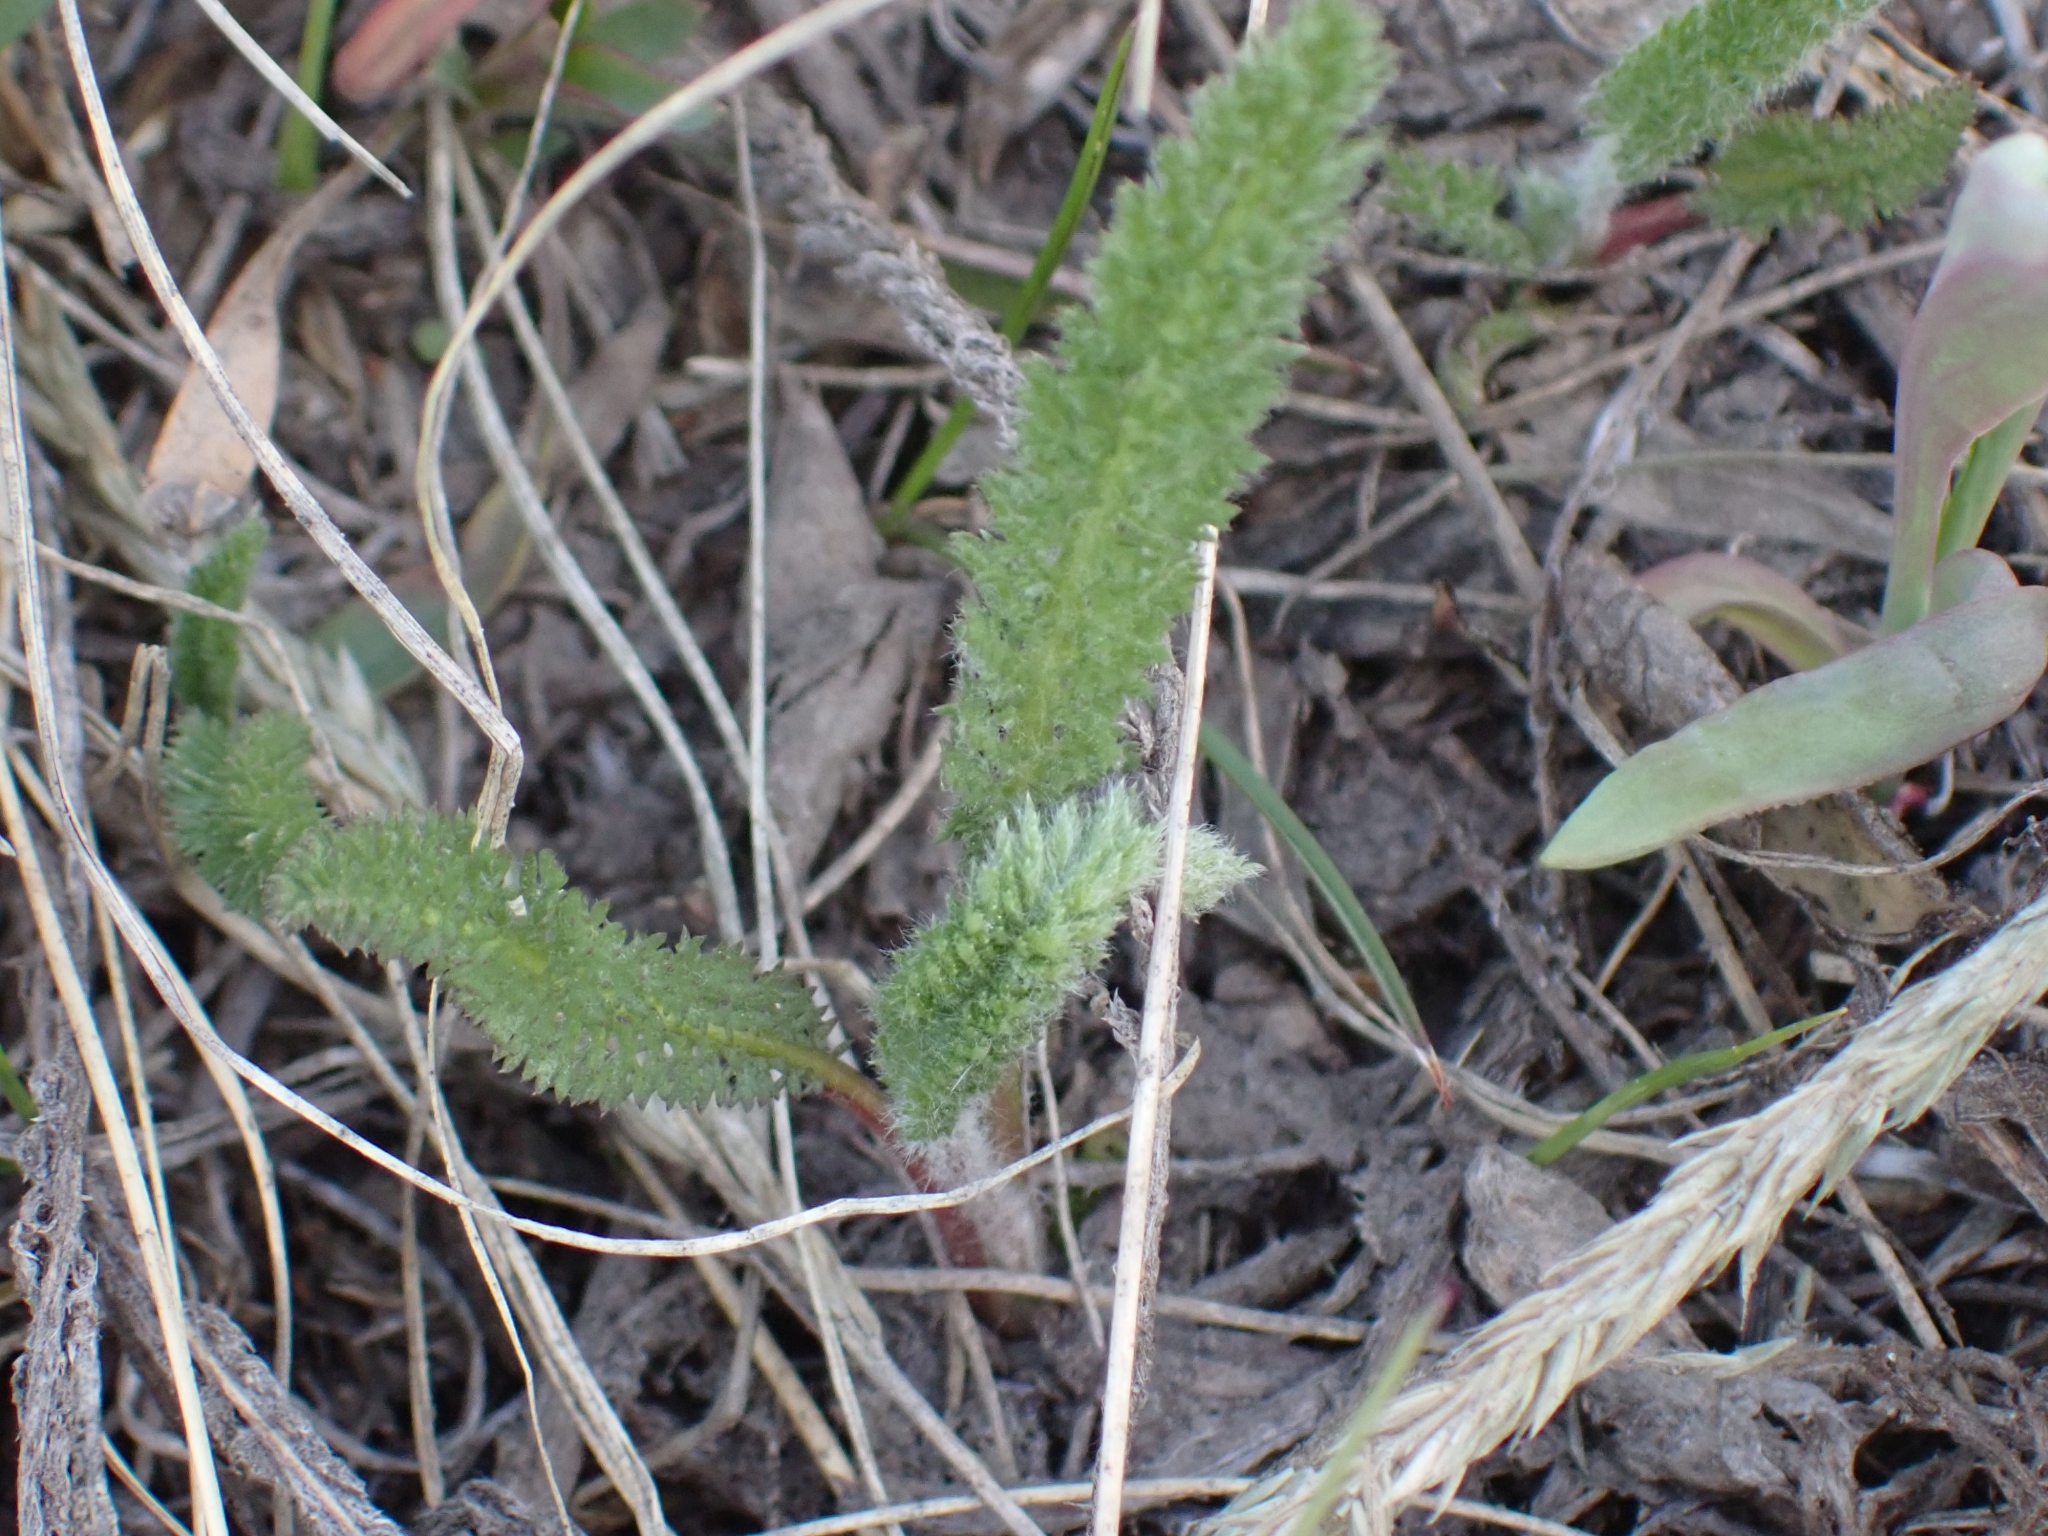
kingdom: Plantae
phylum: Tracheophyta
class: Magnoliopsida
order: Asterales
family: Asteraceae
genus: Achillea
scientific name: Achillea millefolium
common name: Yarrow
